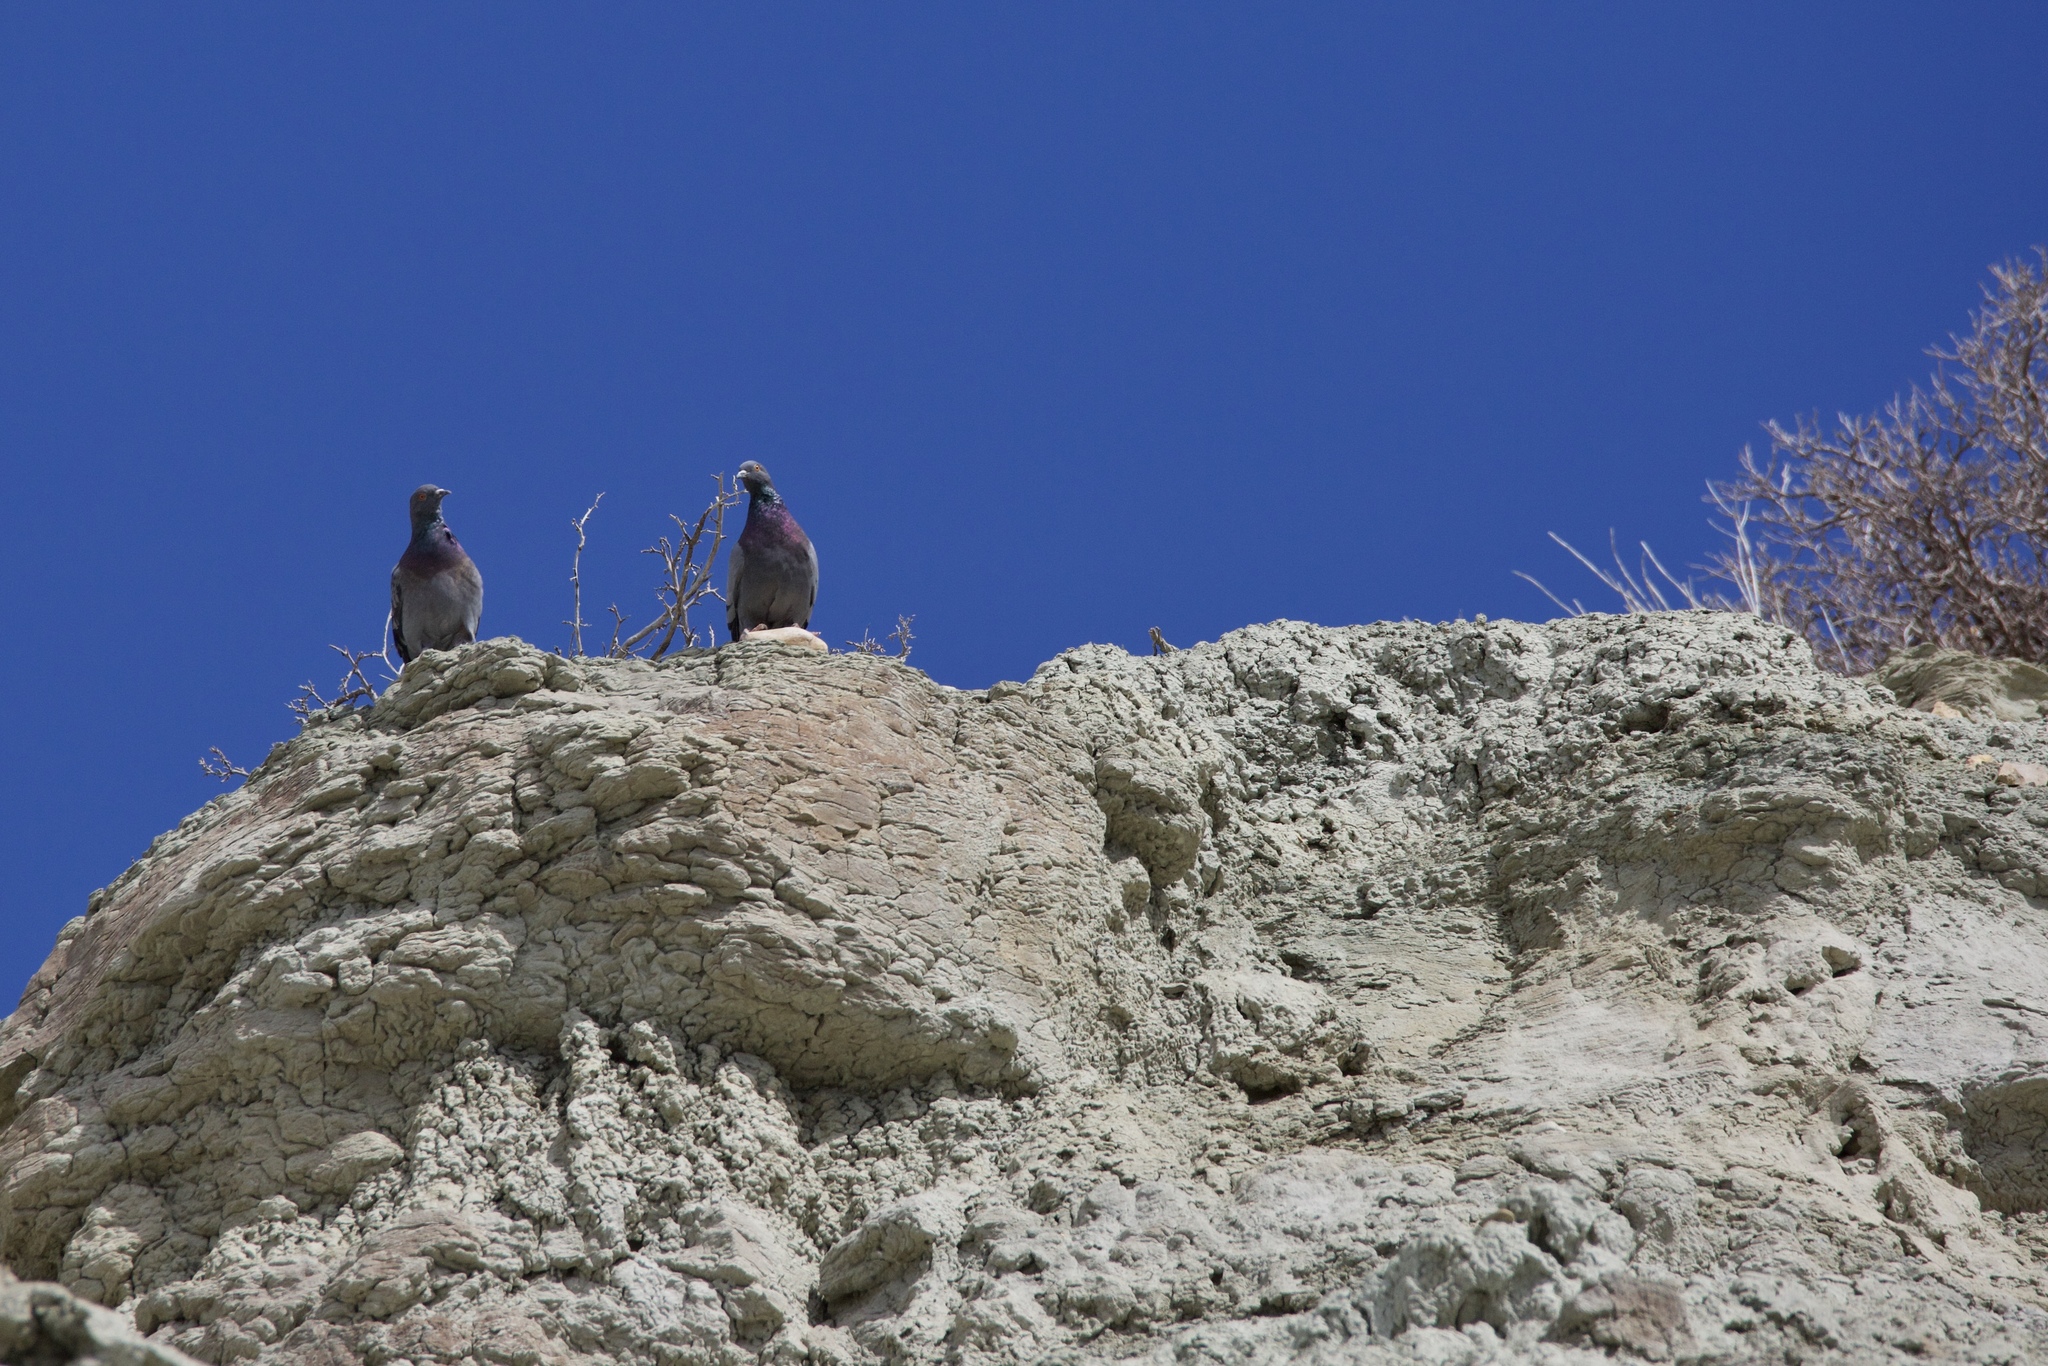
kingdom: Animalia
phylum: Chordata
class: Aves
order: Columbiformes
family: Columbidae
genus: Columba
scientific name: Columba livia
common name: Rock pigeon
